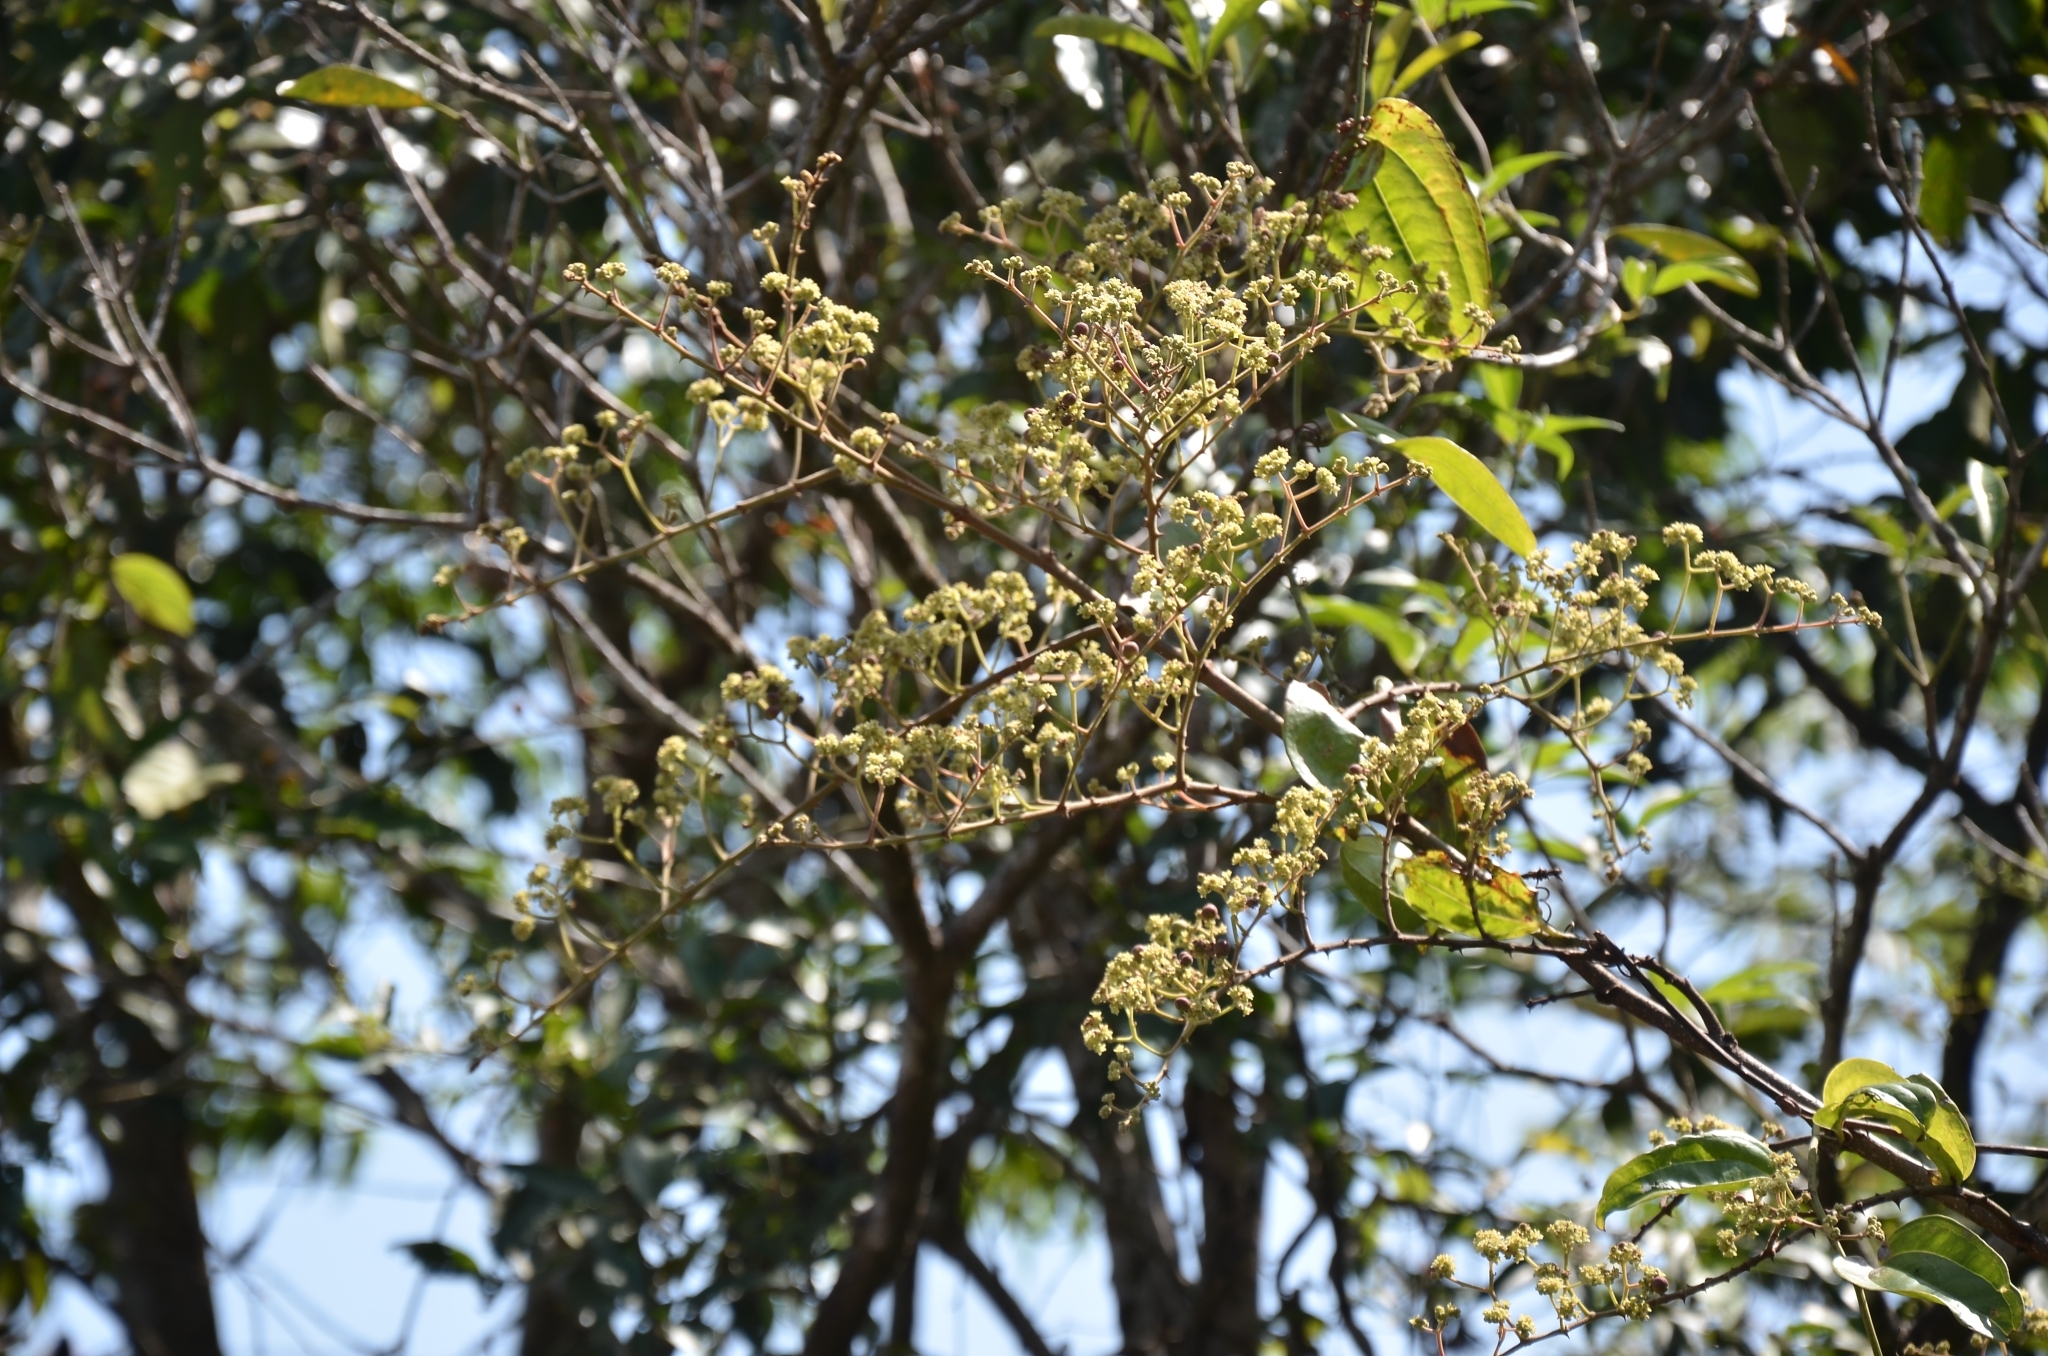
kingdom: Plantae
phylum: Tracheophyta
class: Magnoliopsida
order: Rosales
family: Rhamnaceae
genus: Ziziphus
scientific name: Ziziphus rugosa
